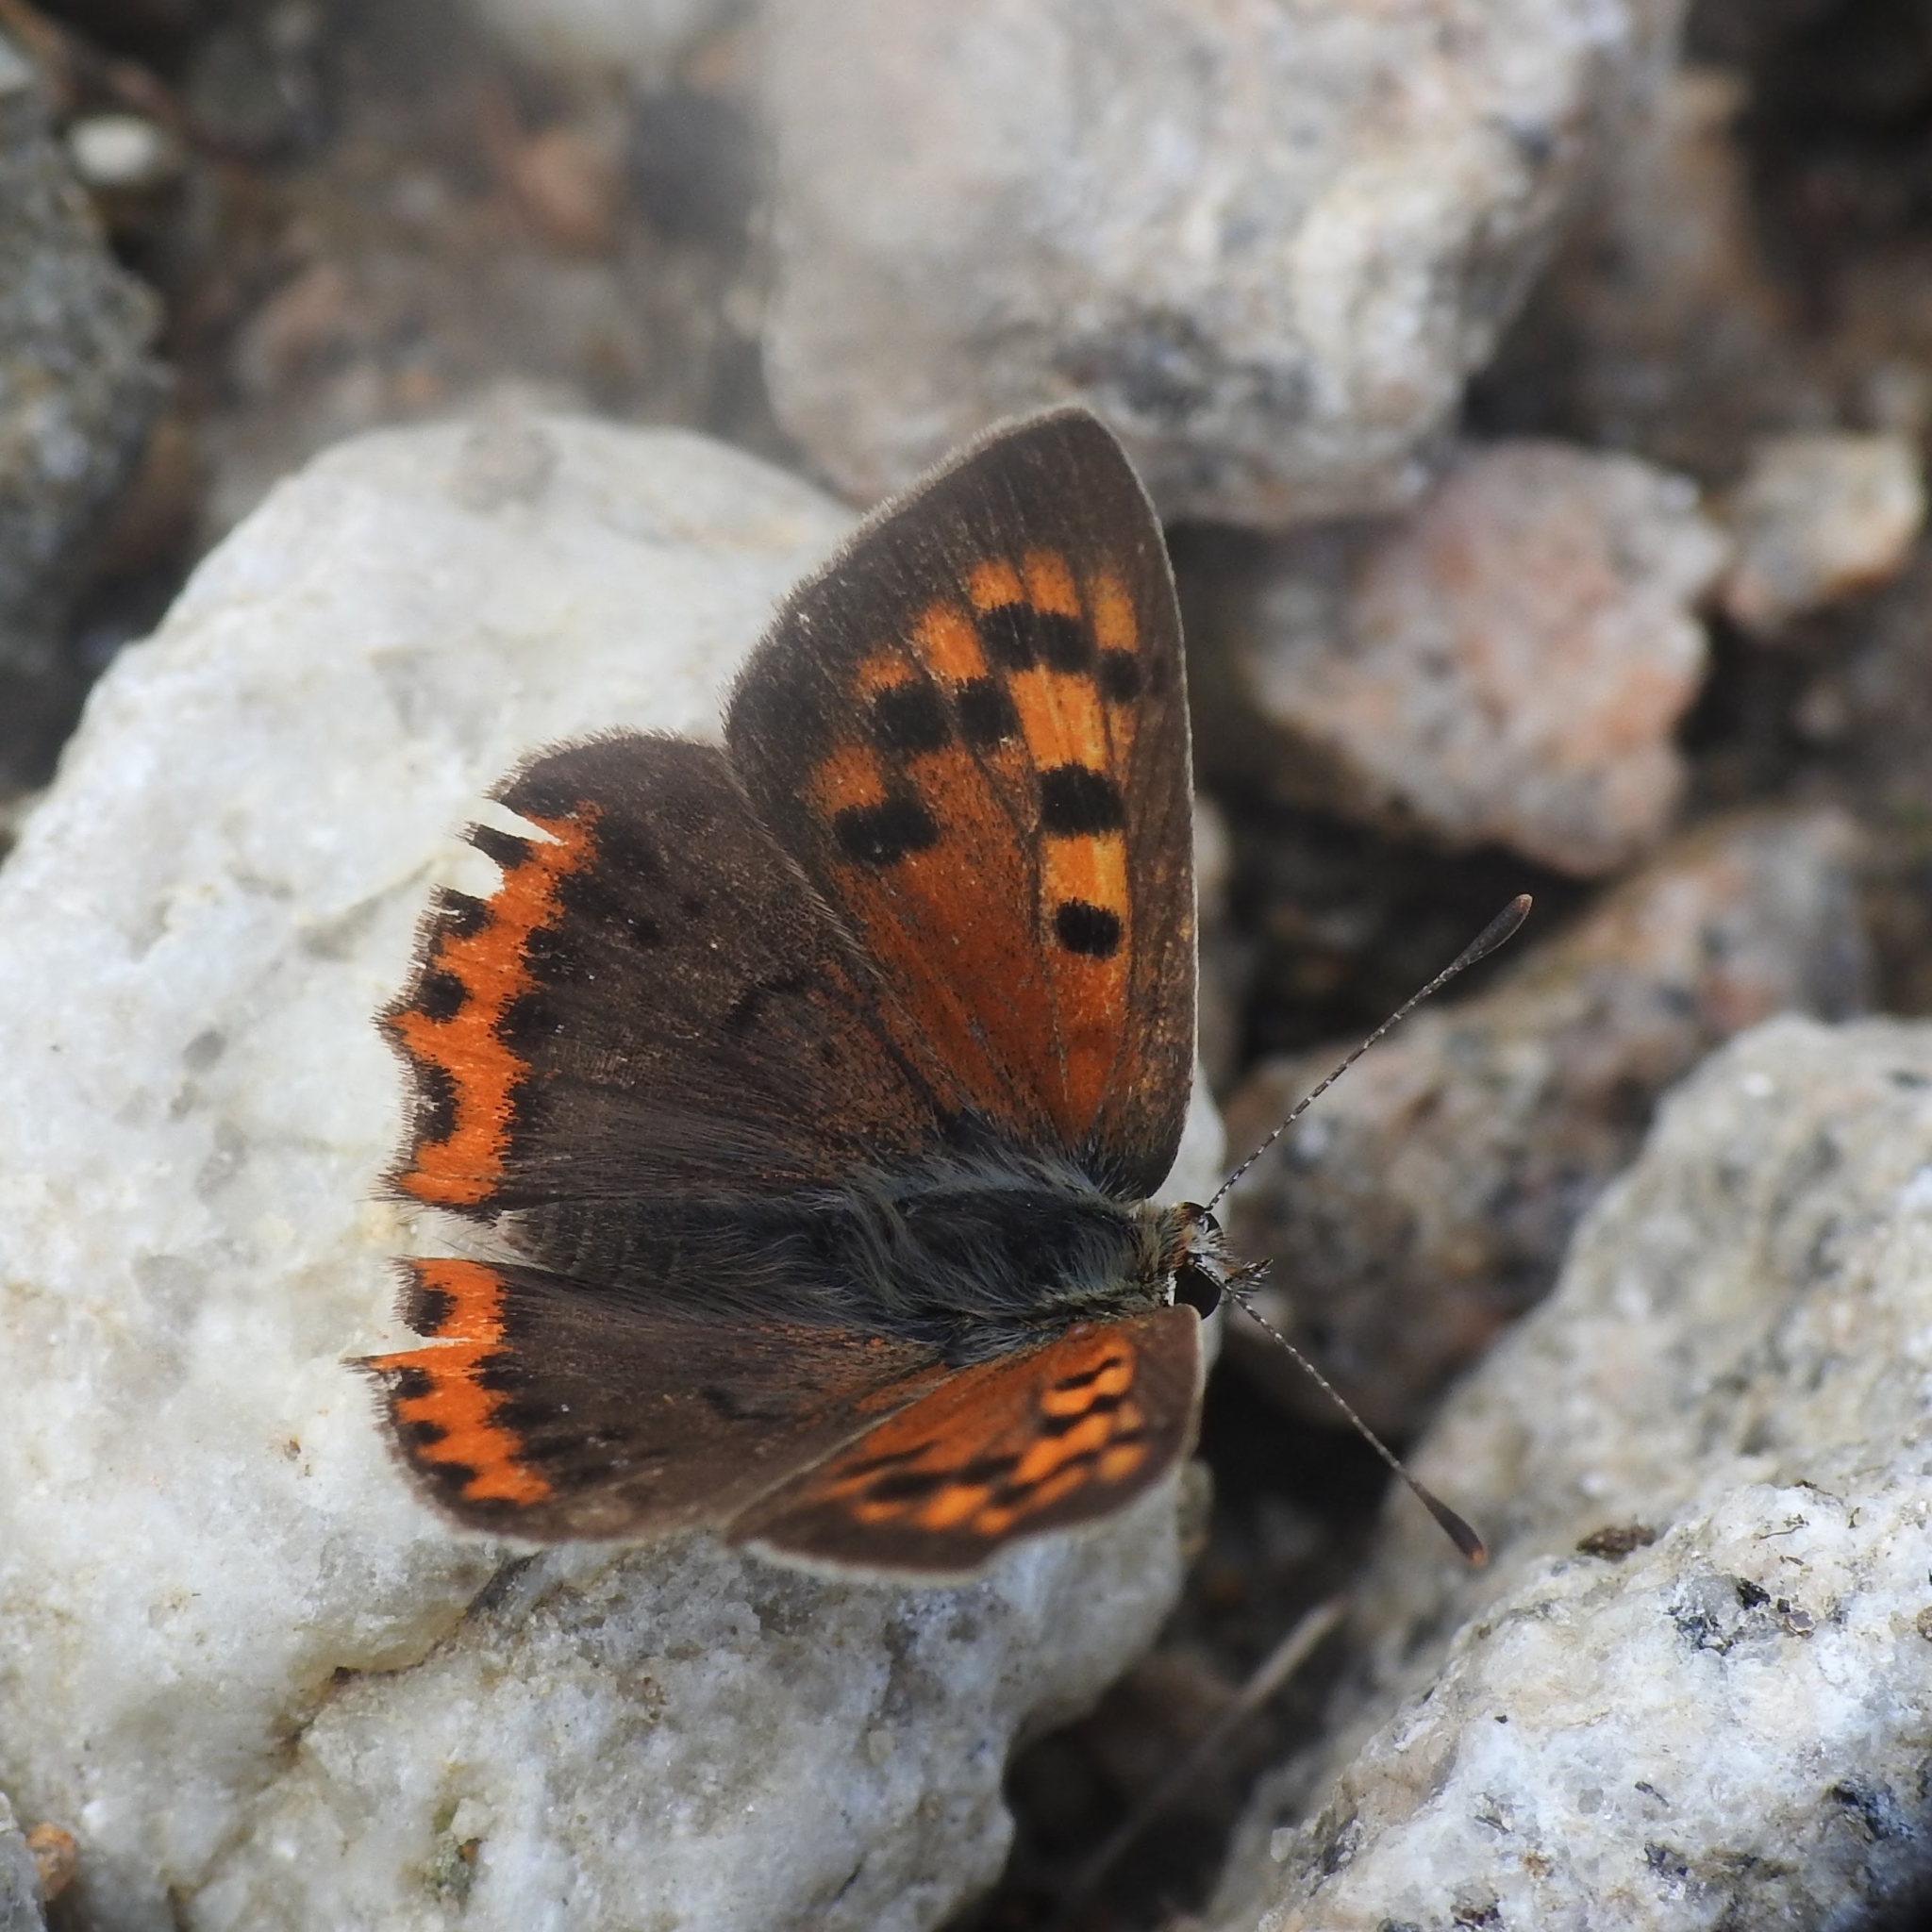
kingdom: Animalia
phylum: Arthropoda
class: Insecta
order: Lepidoptera
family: Lycaenidae
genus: Lycaena
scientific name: Lycaena phlaeas
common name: Small copper
